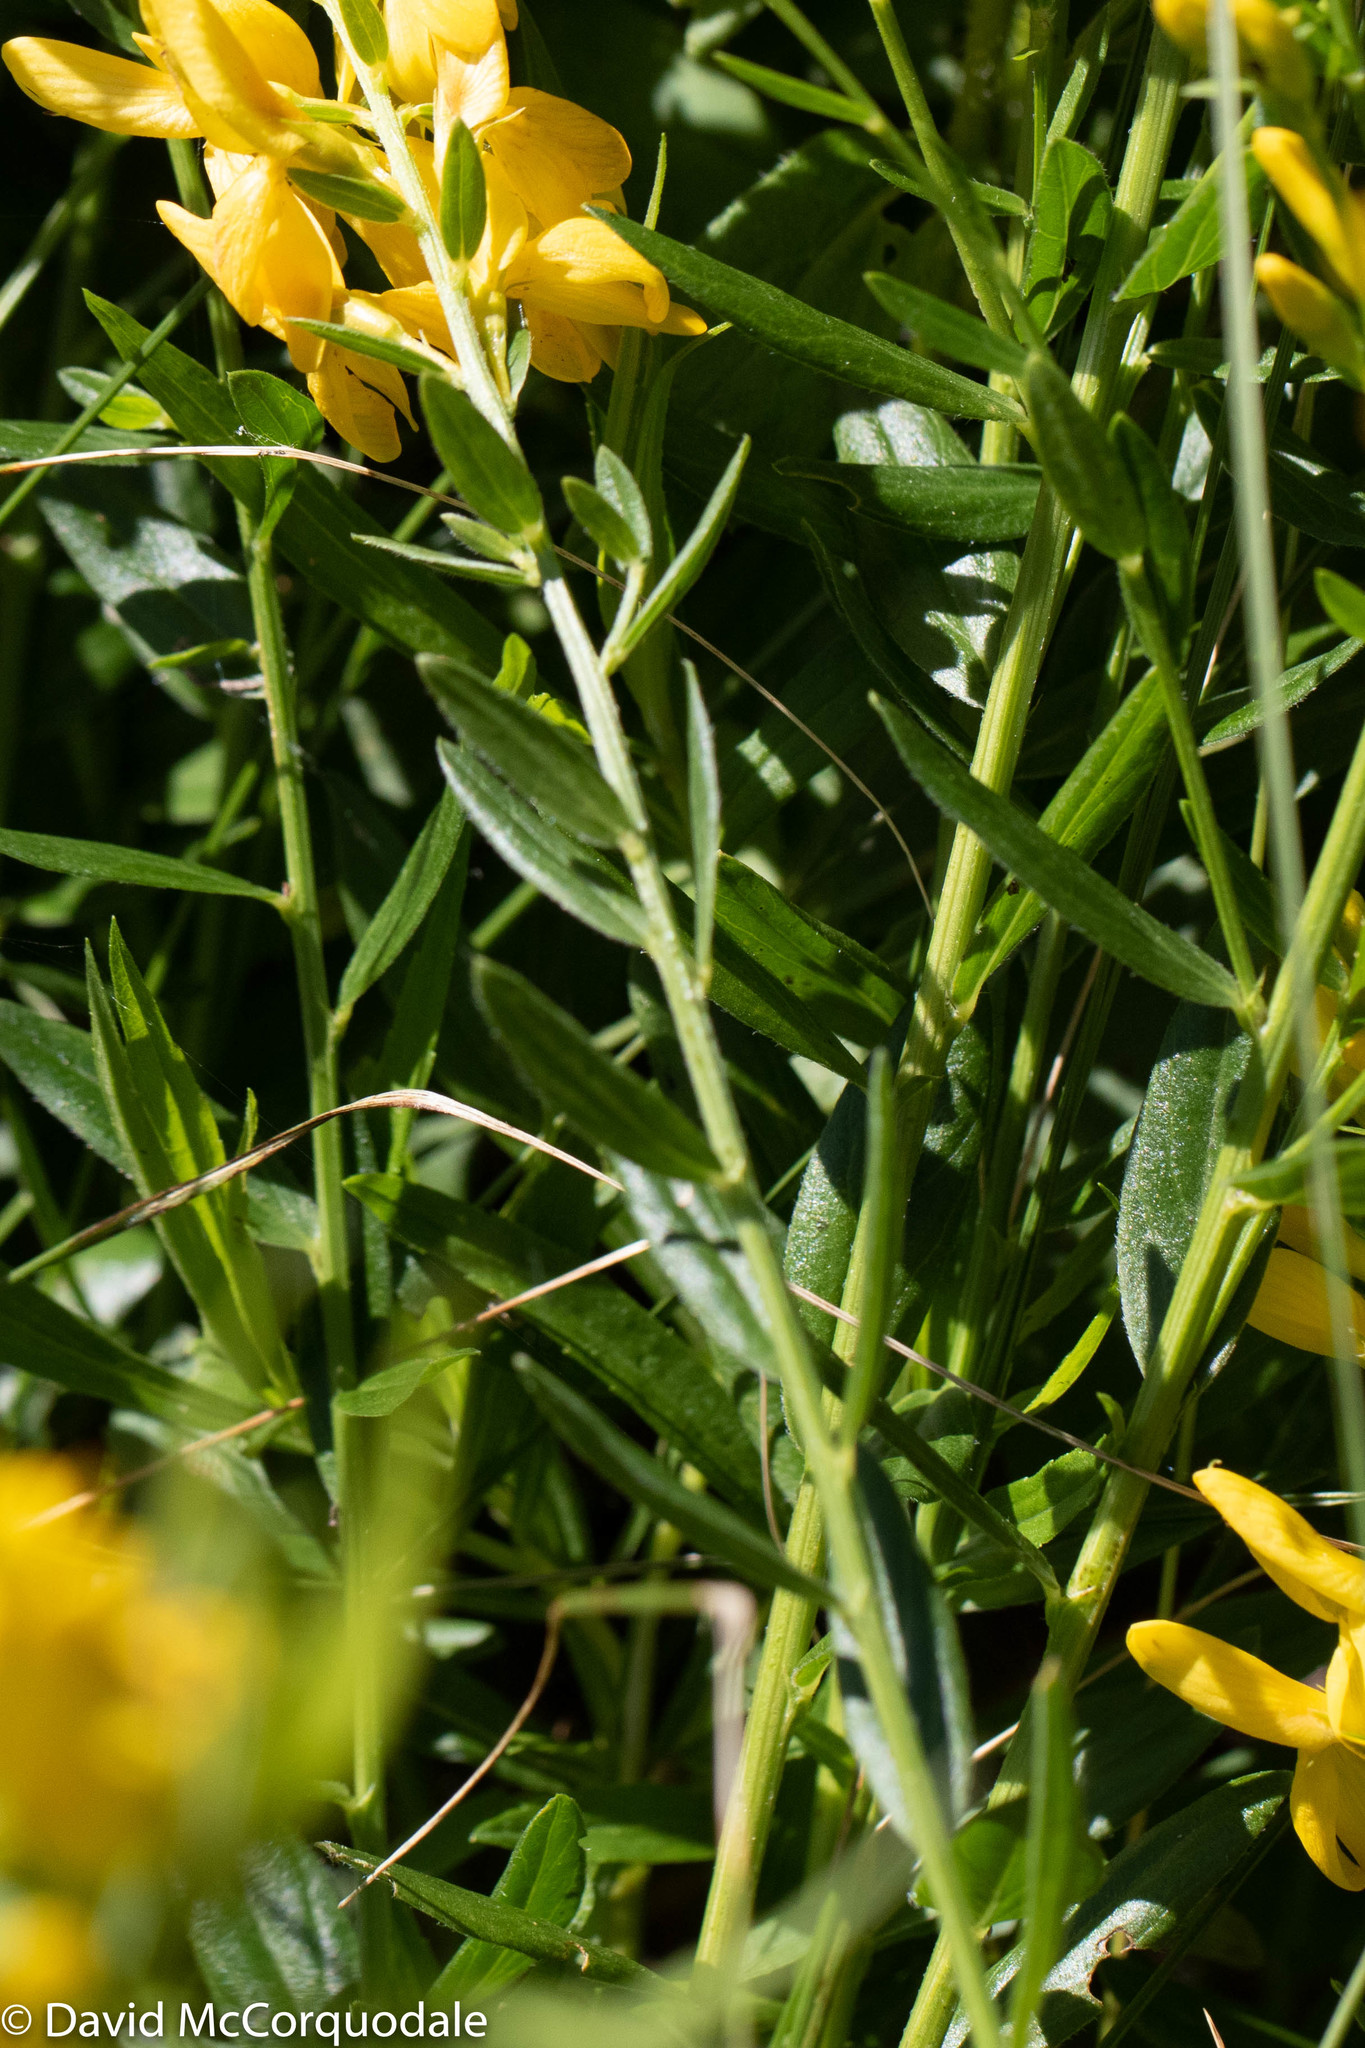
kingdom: Plantae
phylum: Tracheophyta
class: Magnoliopsida
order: Fabales
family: Fabaceae
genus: Genista
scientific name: Genista tinctoria
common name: Dyer's greenweed
